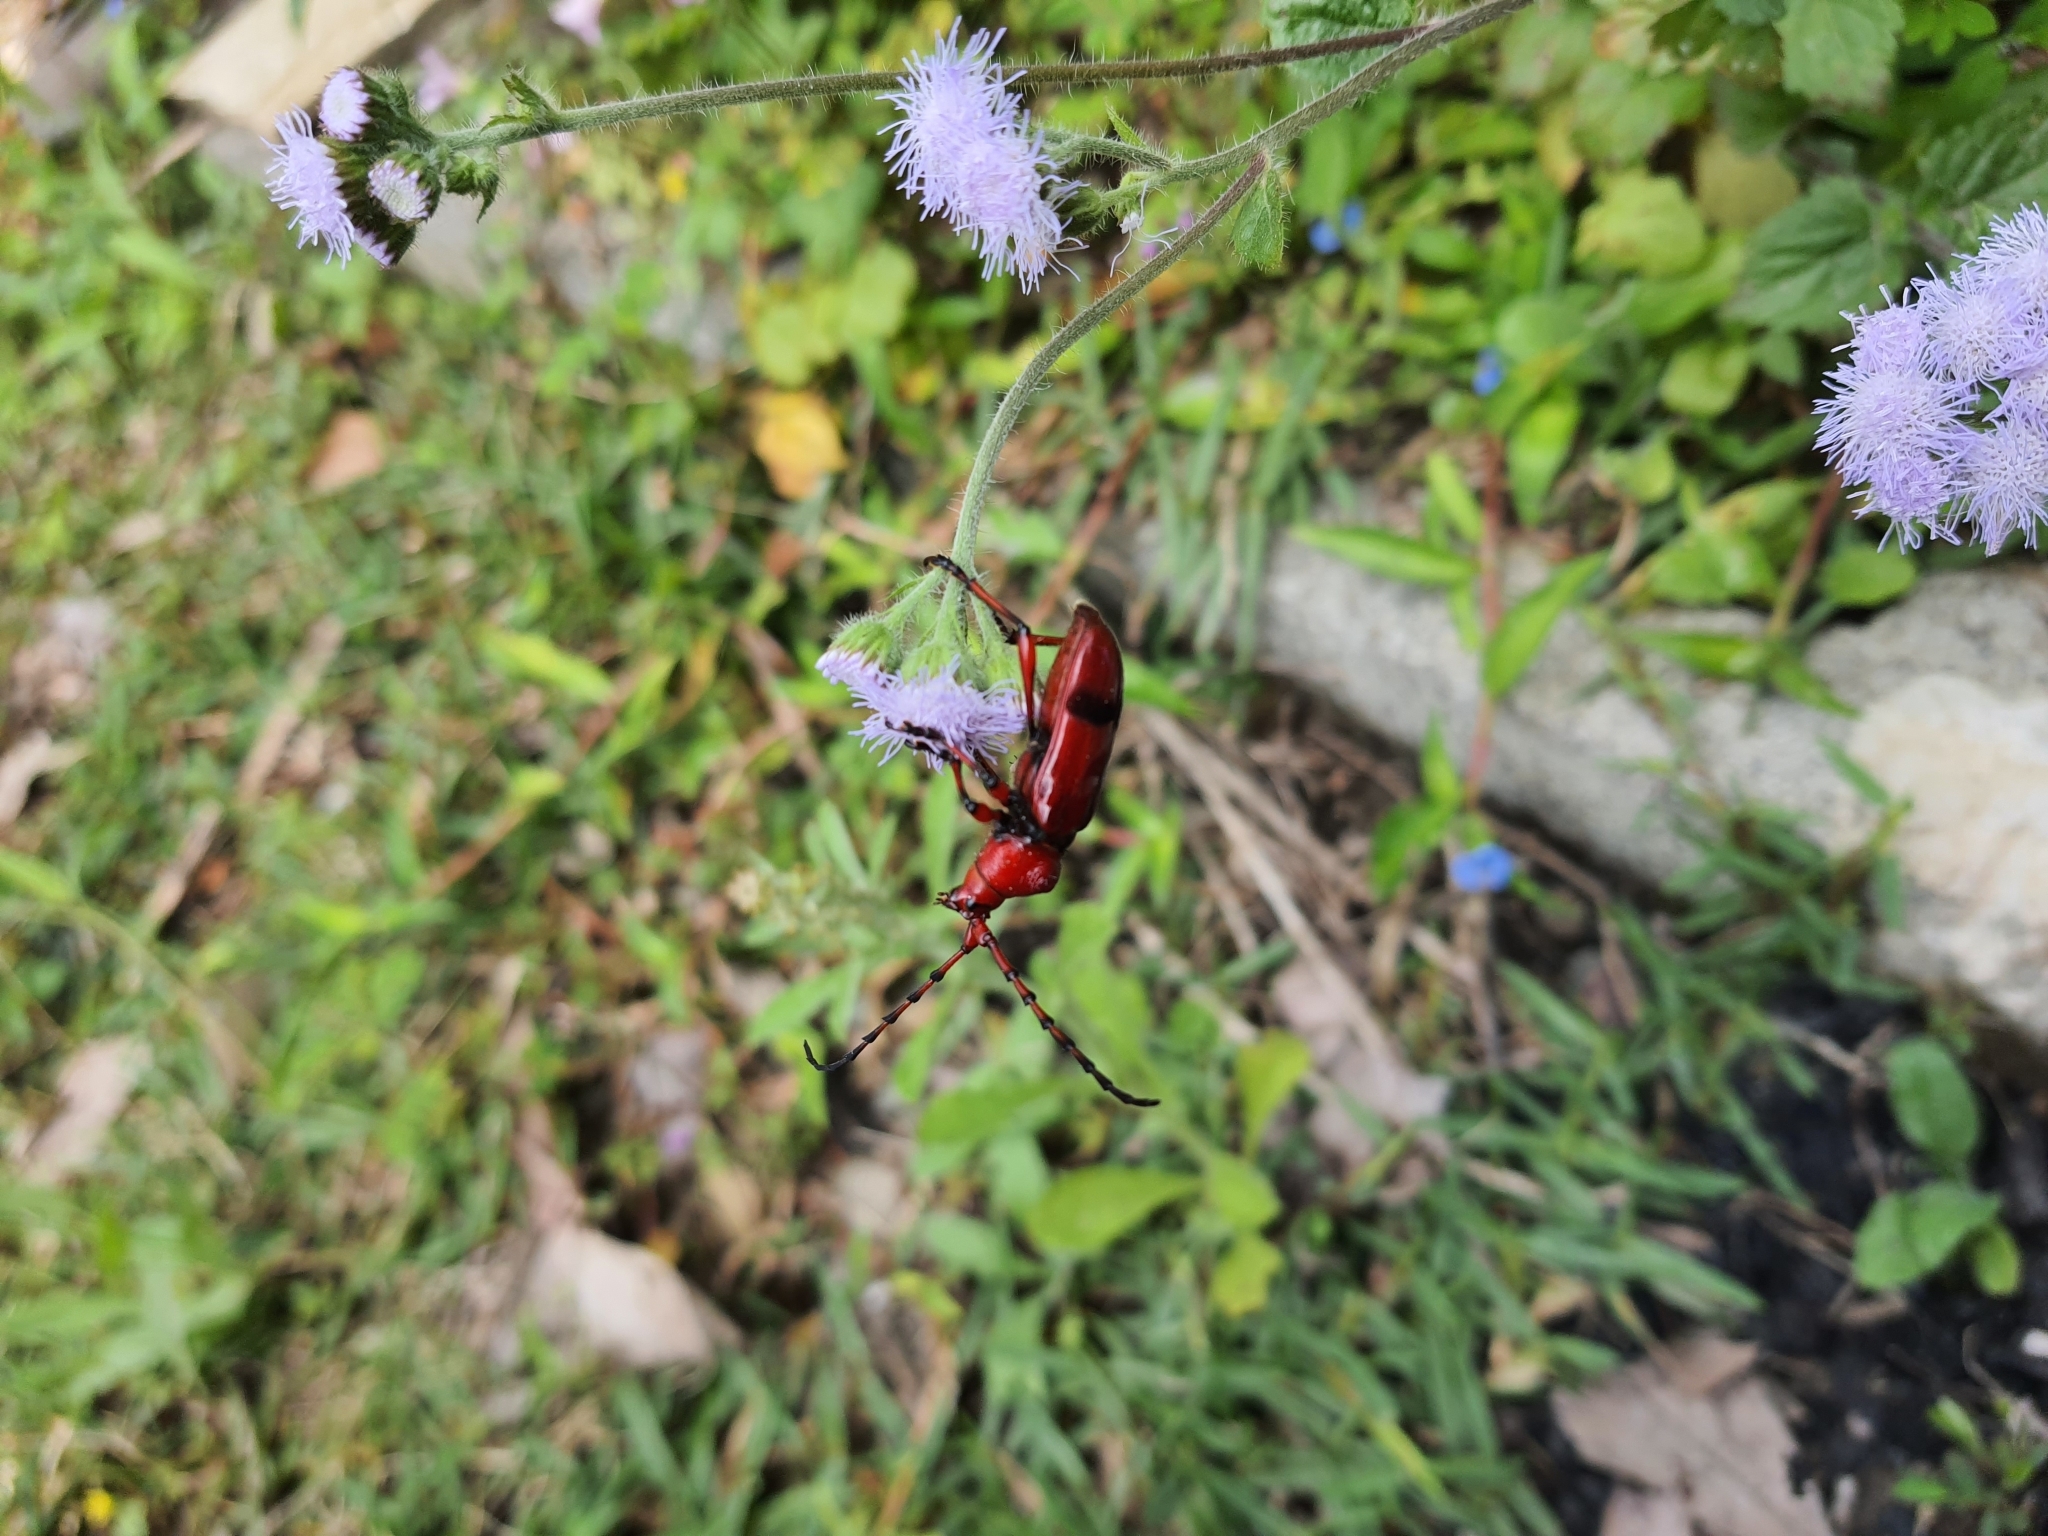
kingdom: Animalia
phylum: Arthropoda
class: Insecta
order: Coleoptera
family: Cerambycidae
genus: Dicelosternus
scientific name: Dicelosternus corallinus
